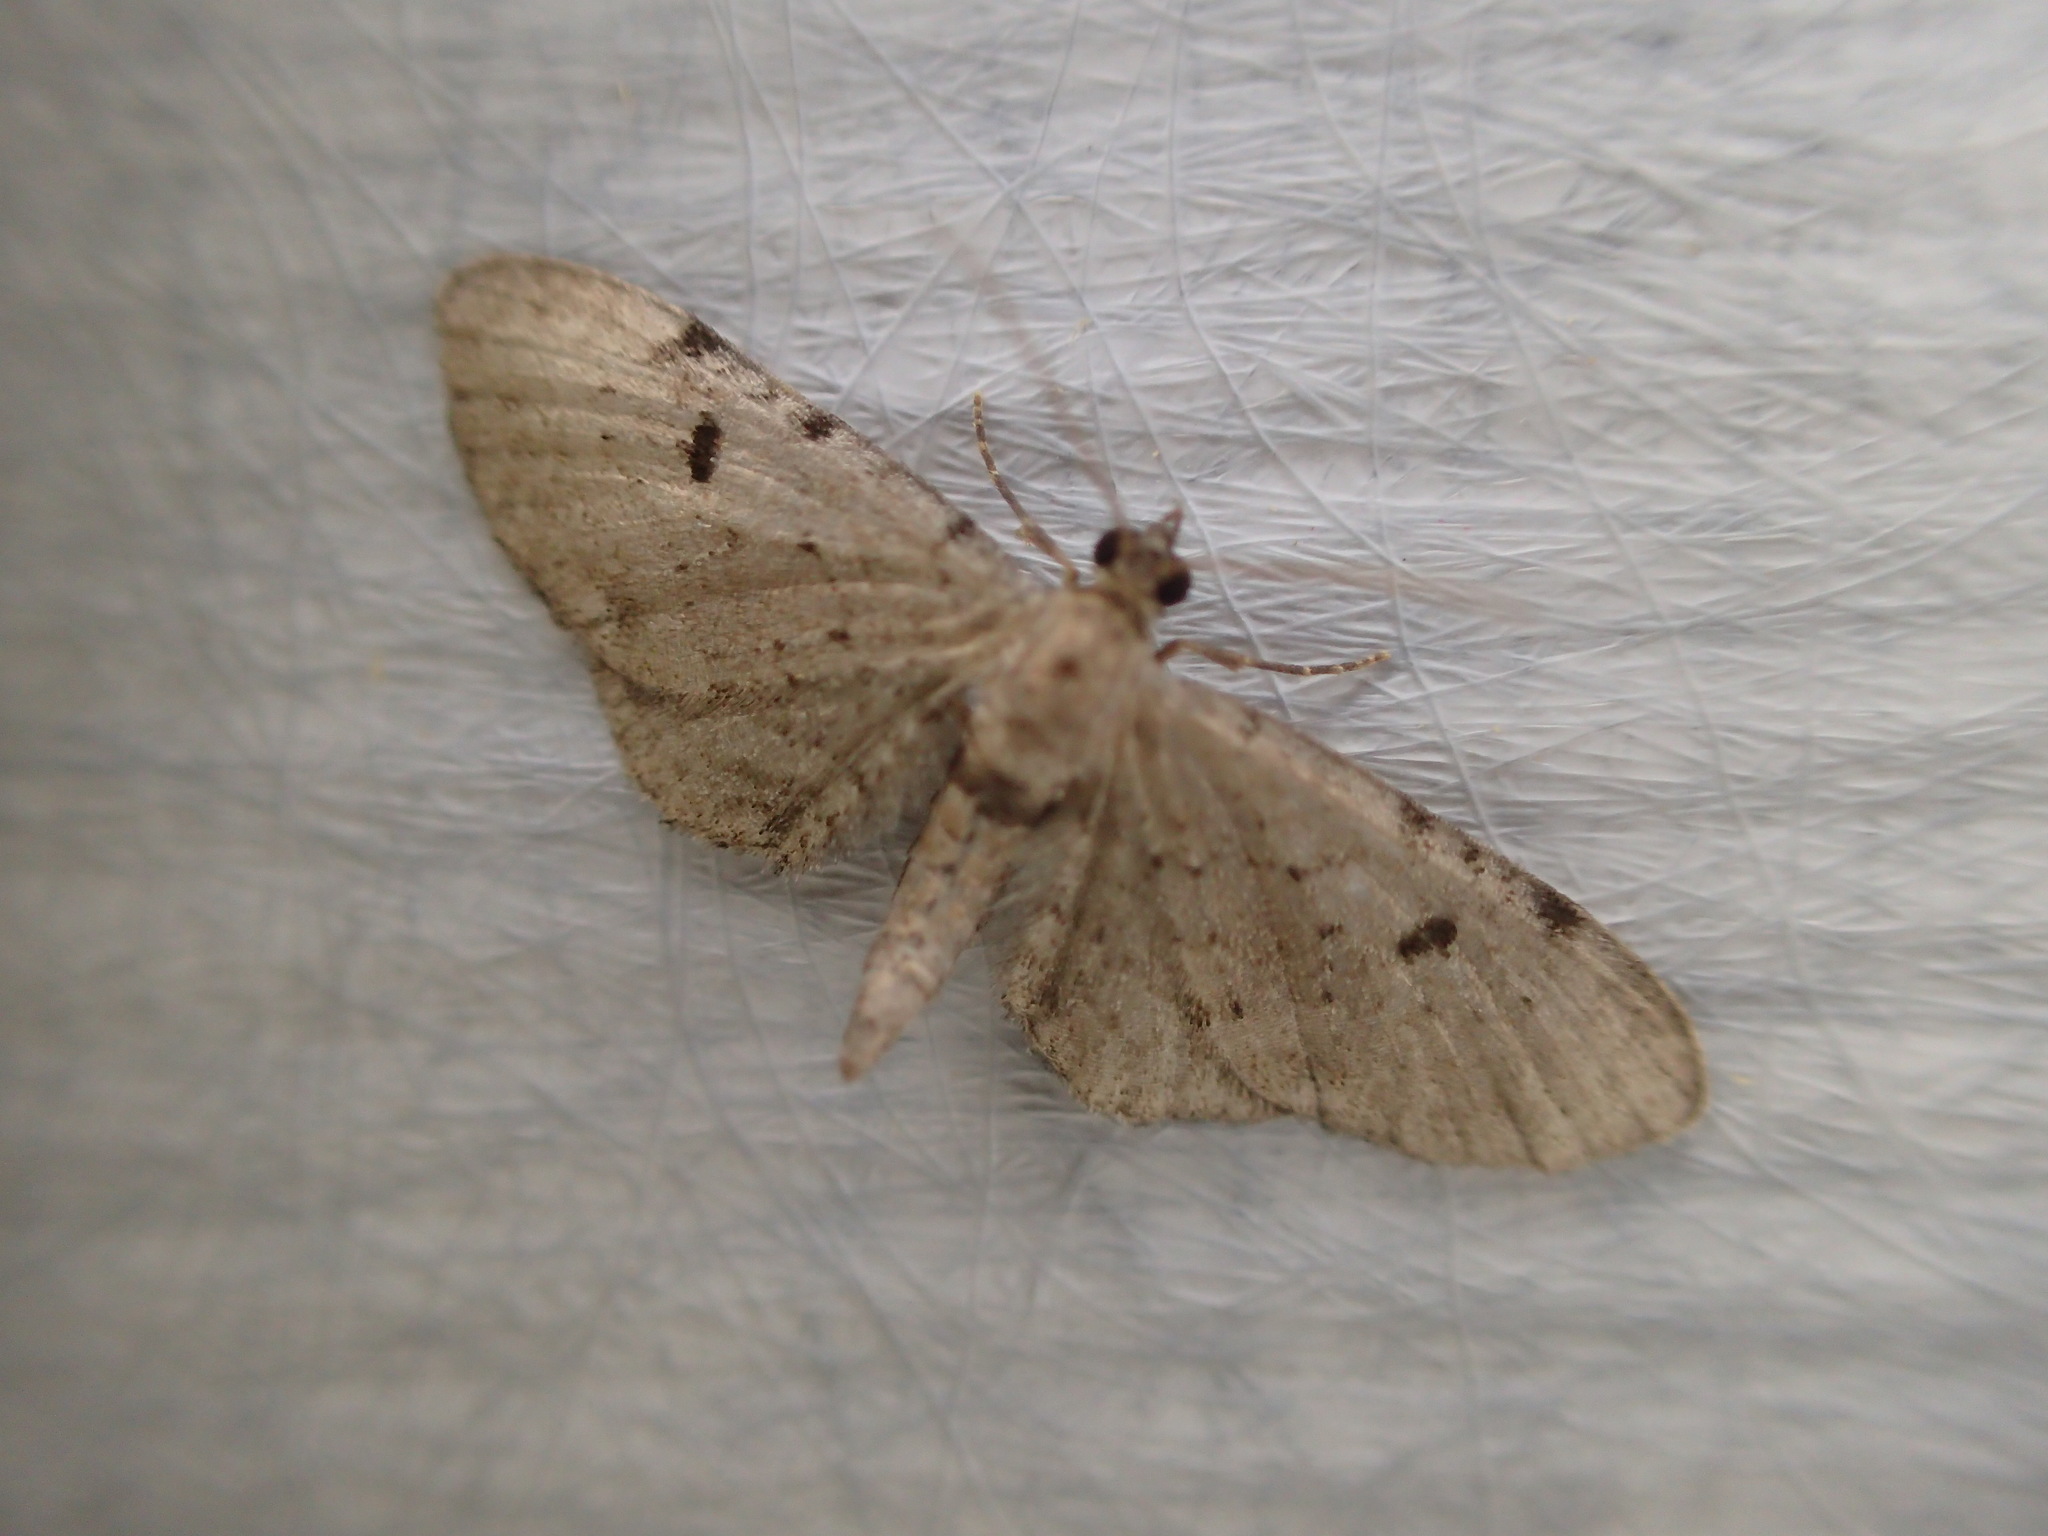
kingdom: Animalia
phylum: Arthropoda
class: Insecta
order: Lepidoptera
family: Geometridae
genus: Eupithecia
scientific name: Eupithecia absinthiata
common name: Wormwood pug
